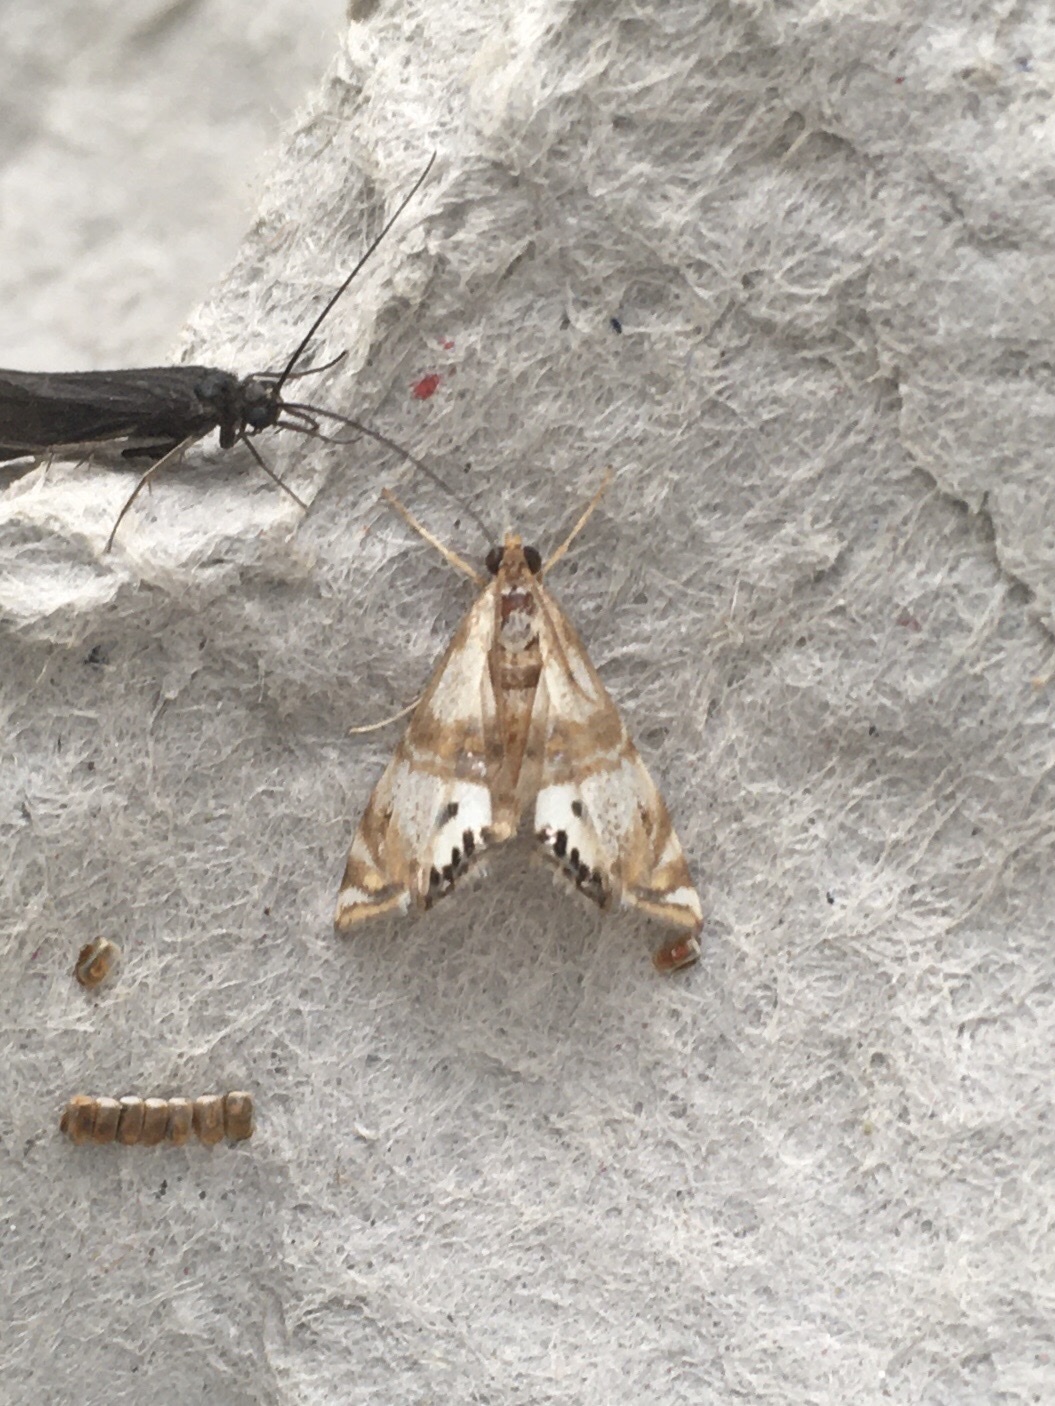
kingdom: Animalia
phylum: Arthropoda
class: Insecta
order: Lepidoptera
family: Crambidae
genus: Petrophila
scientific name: Petrophila bifascialis
